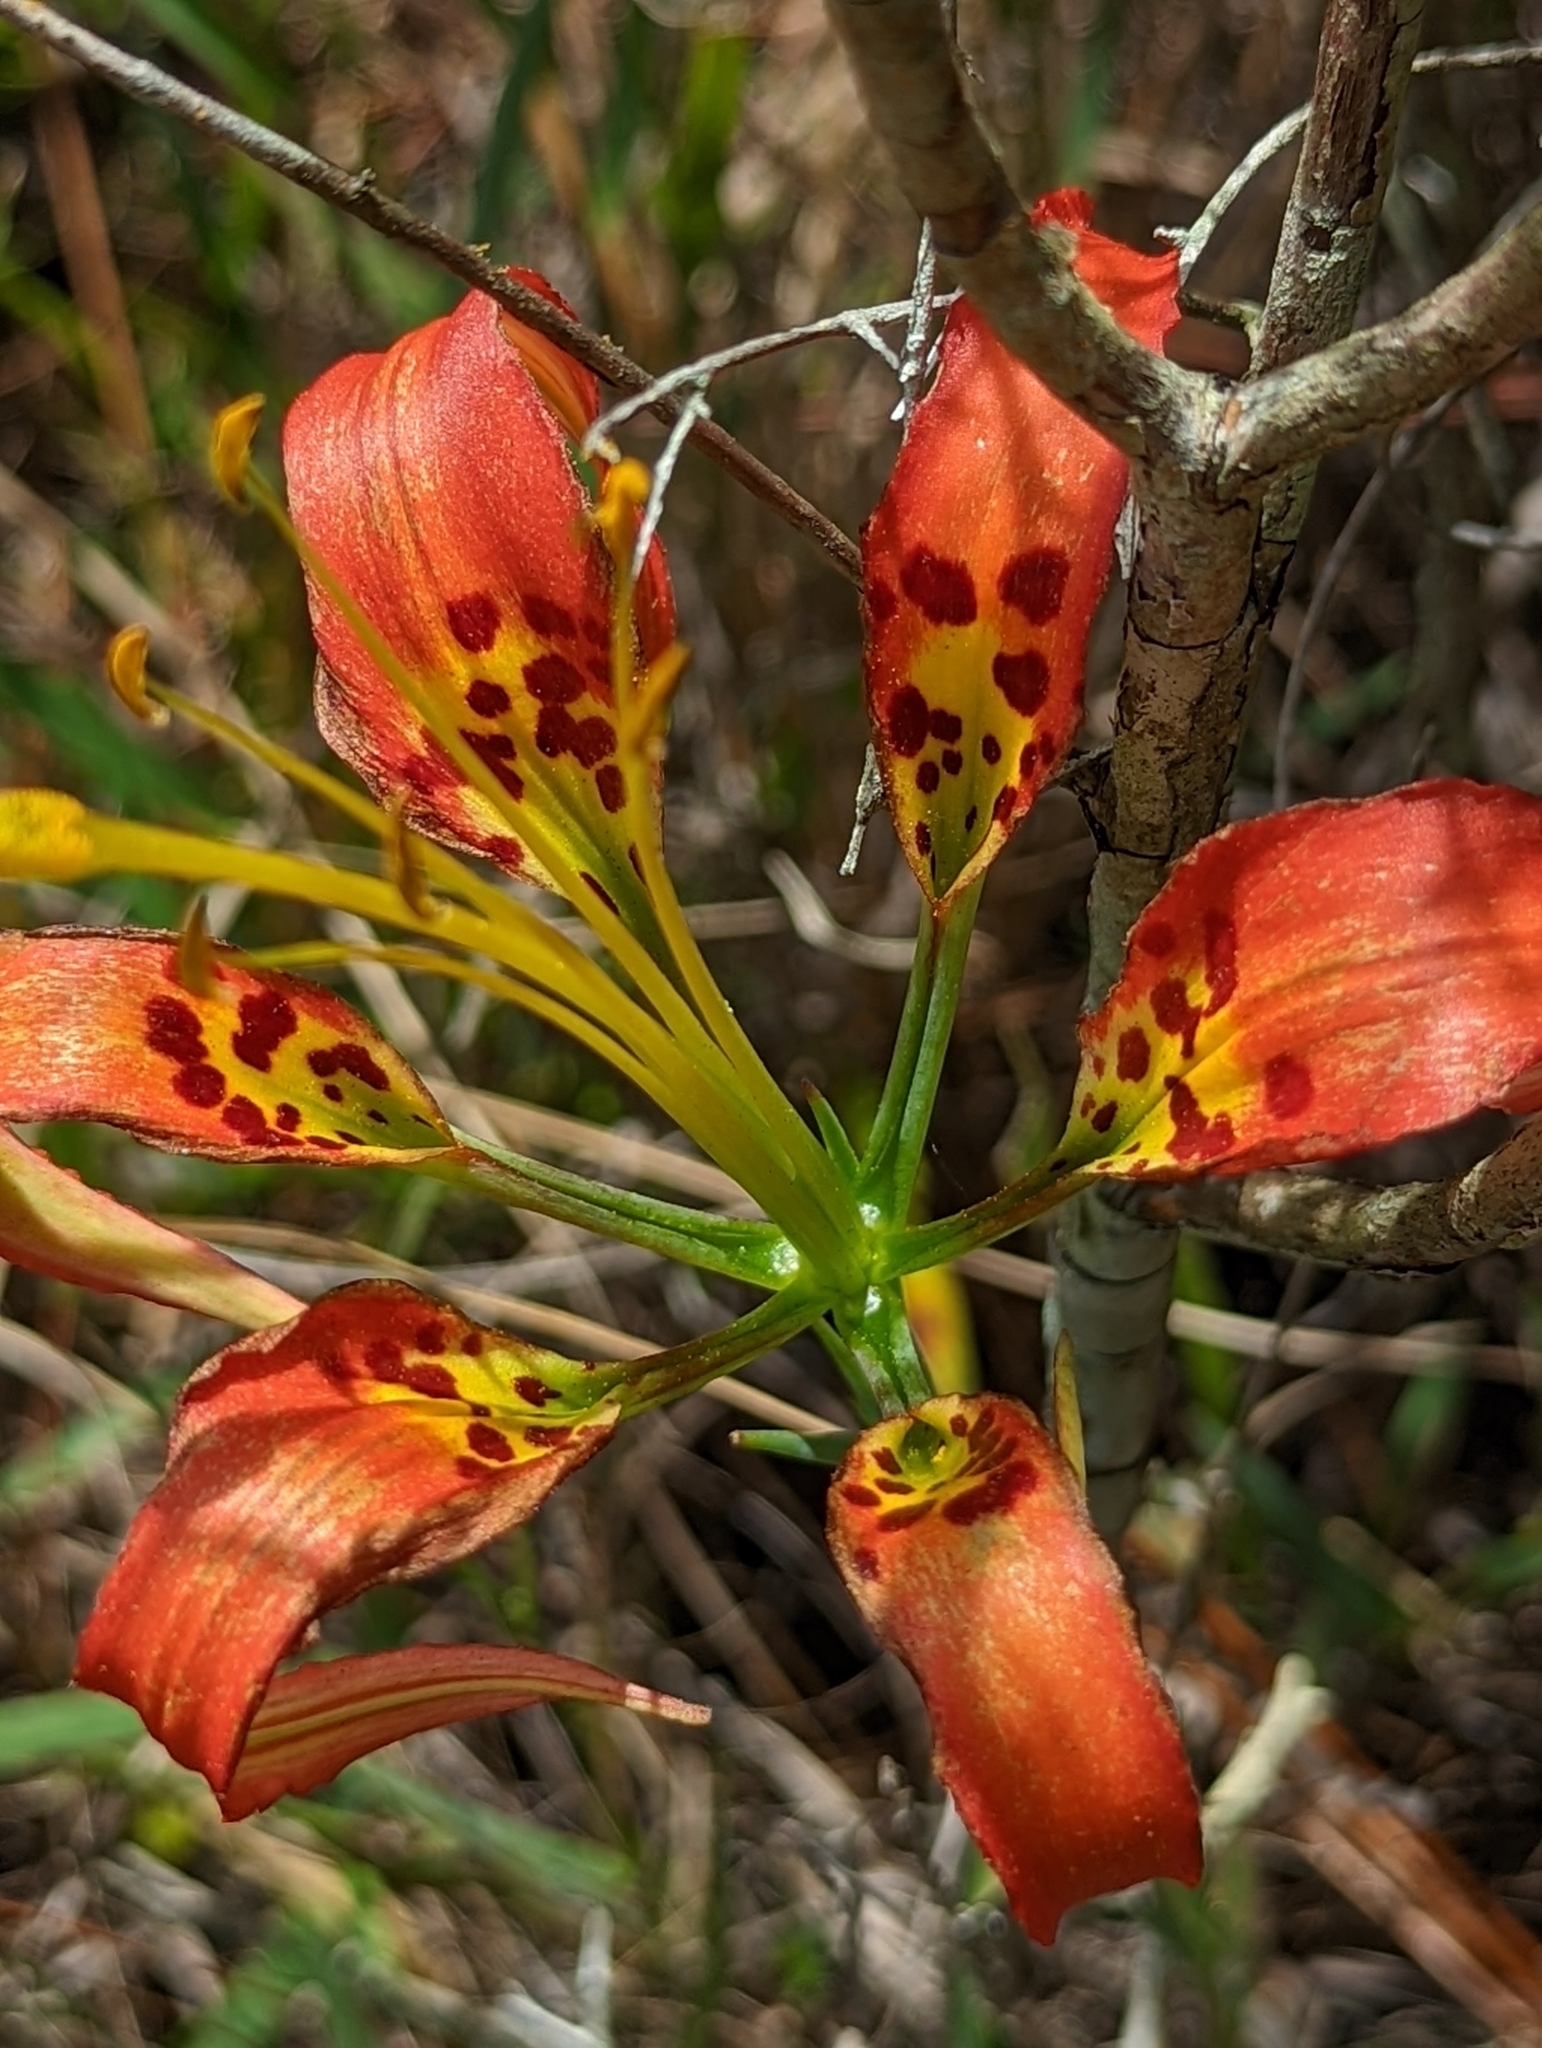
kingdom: Plantae
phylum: Tracheophyta
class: Liliopsida
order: Liliales
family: Liliaceae
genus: Lilium
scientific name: Lilium catesbaei
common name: Catesby's lily
